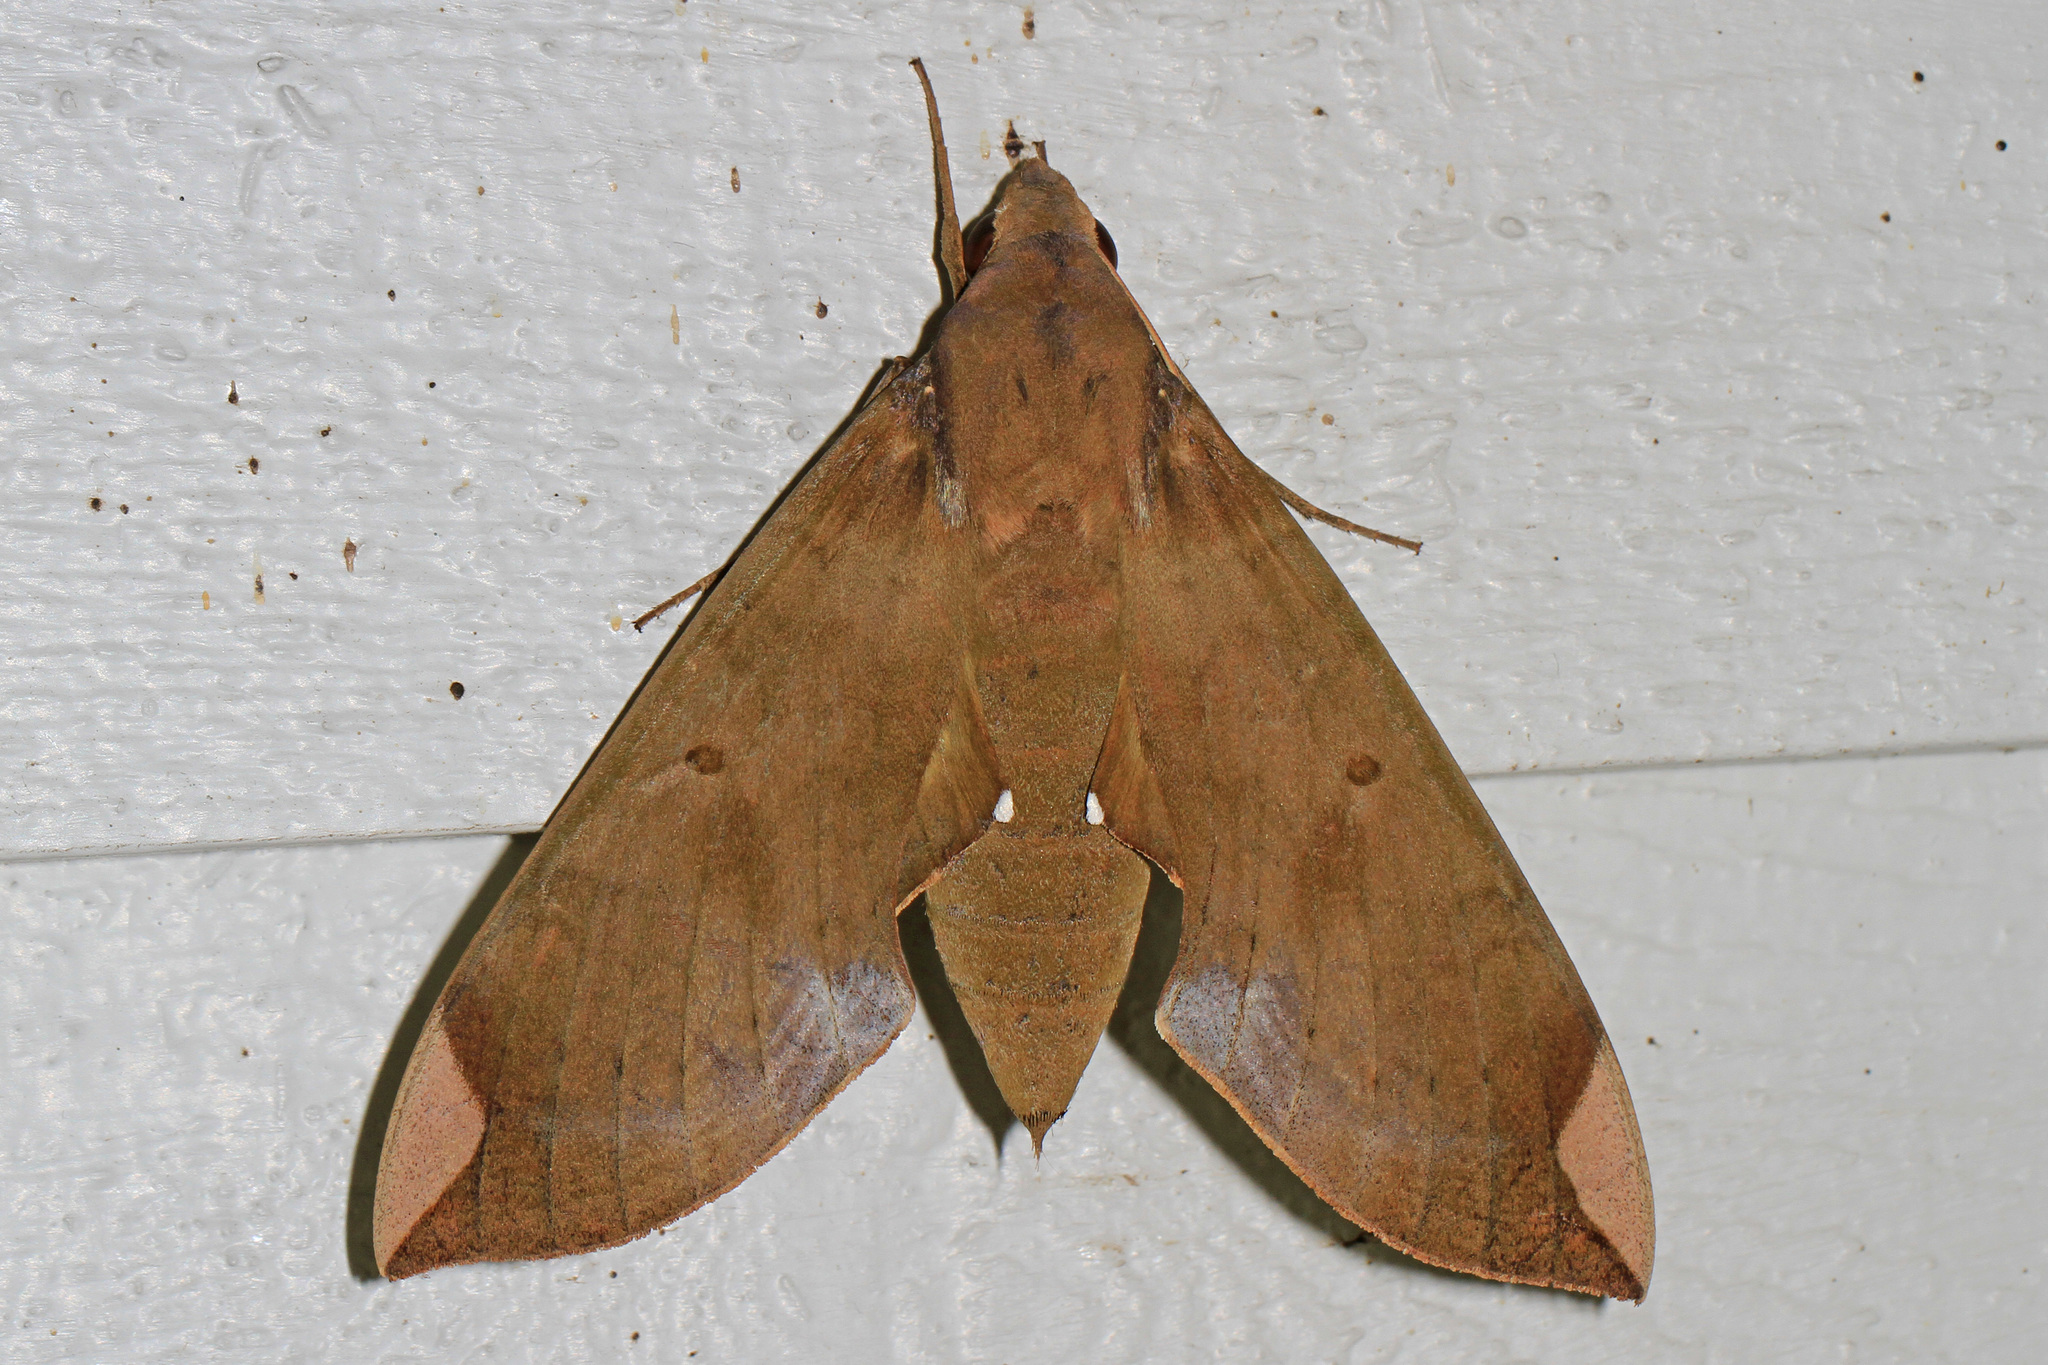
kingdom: Animalia
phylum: Arthropoda
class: Insecta
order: Lepidoptera
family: Sphingidae
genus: Pachylia
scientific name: Pachylia ficus
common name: Fig sphinx
